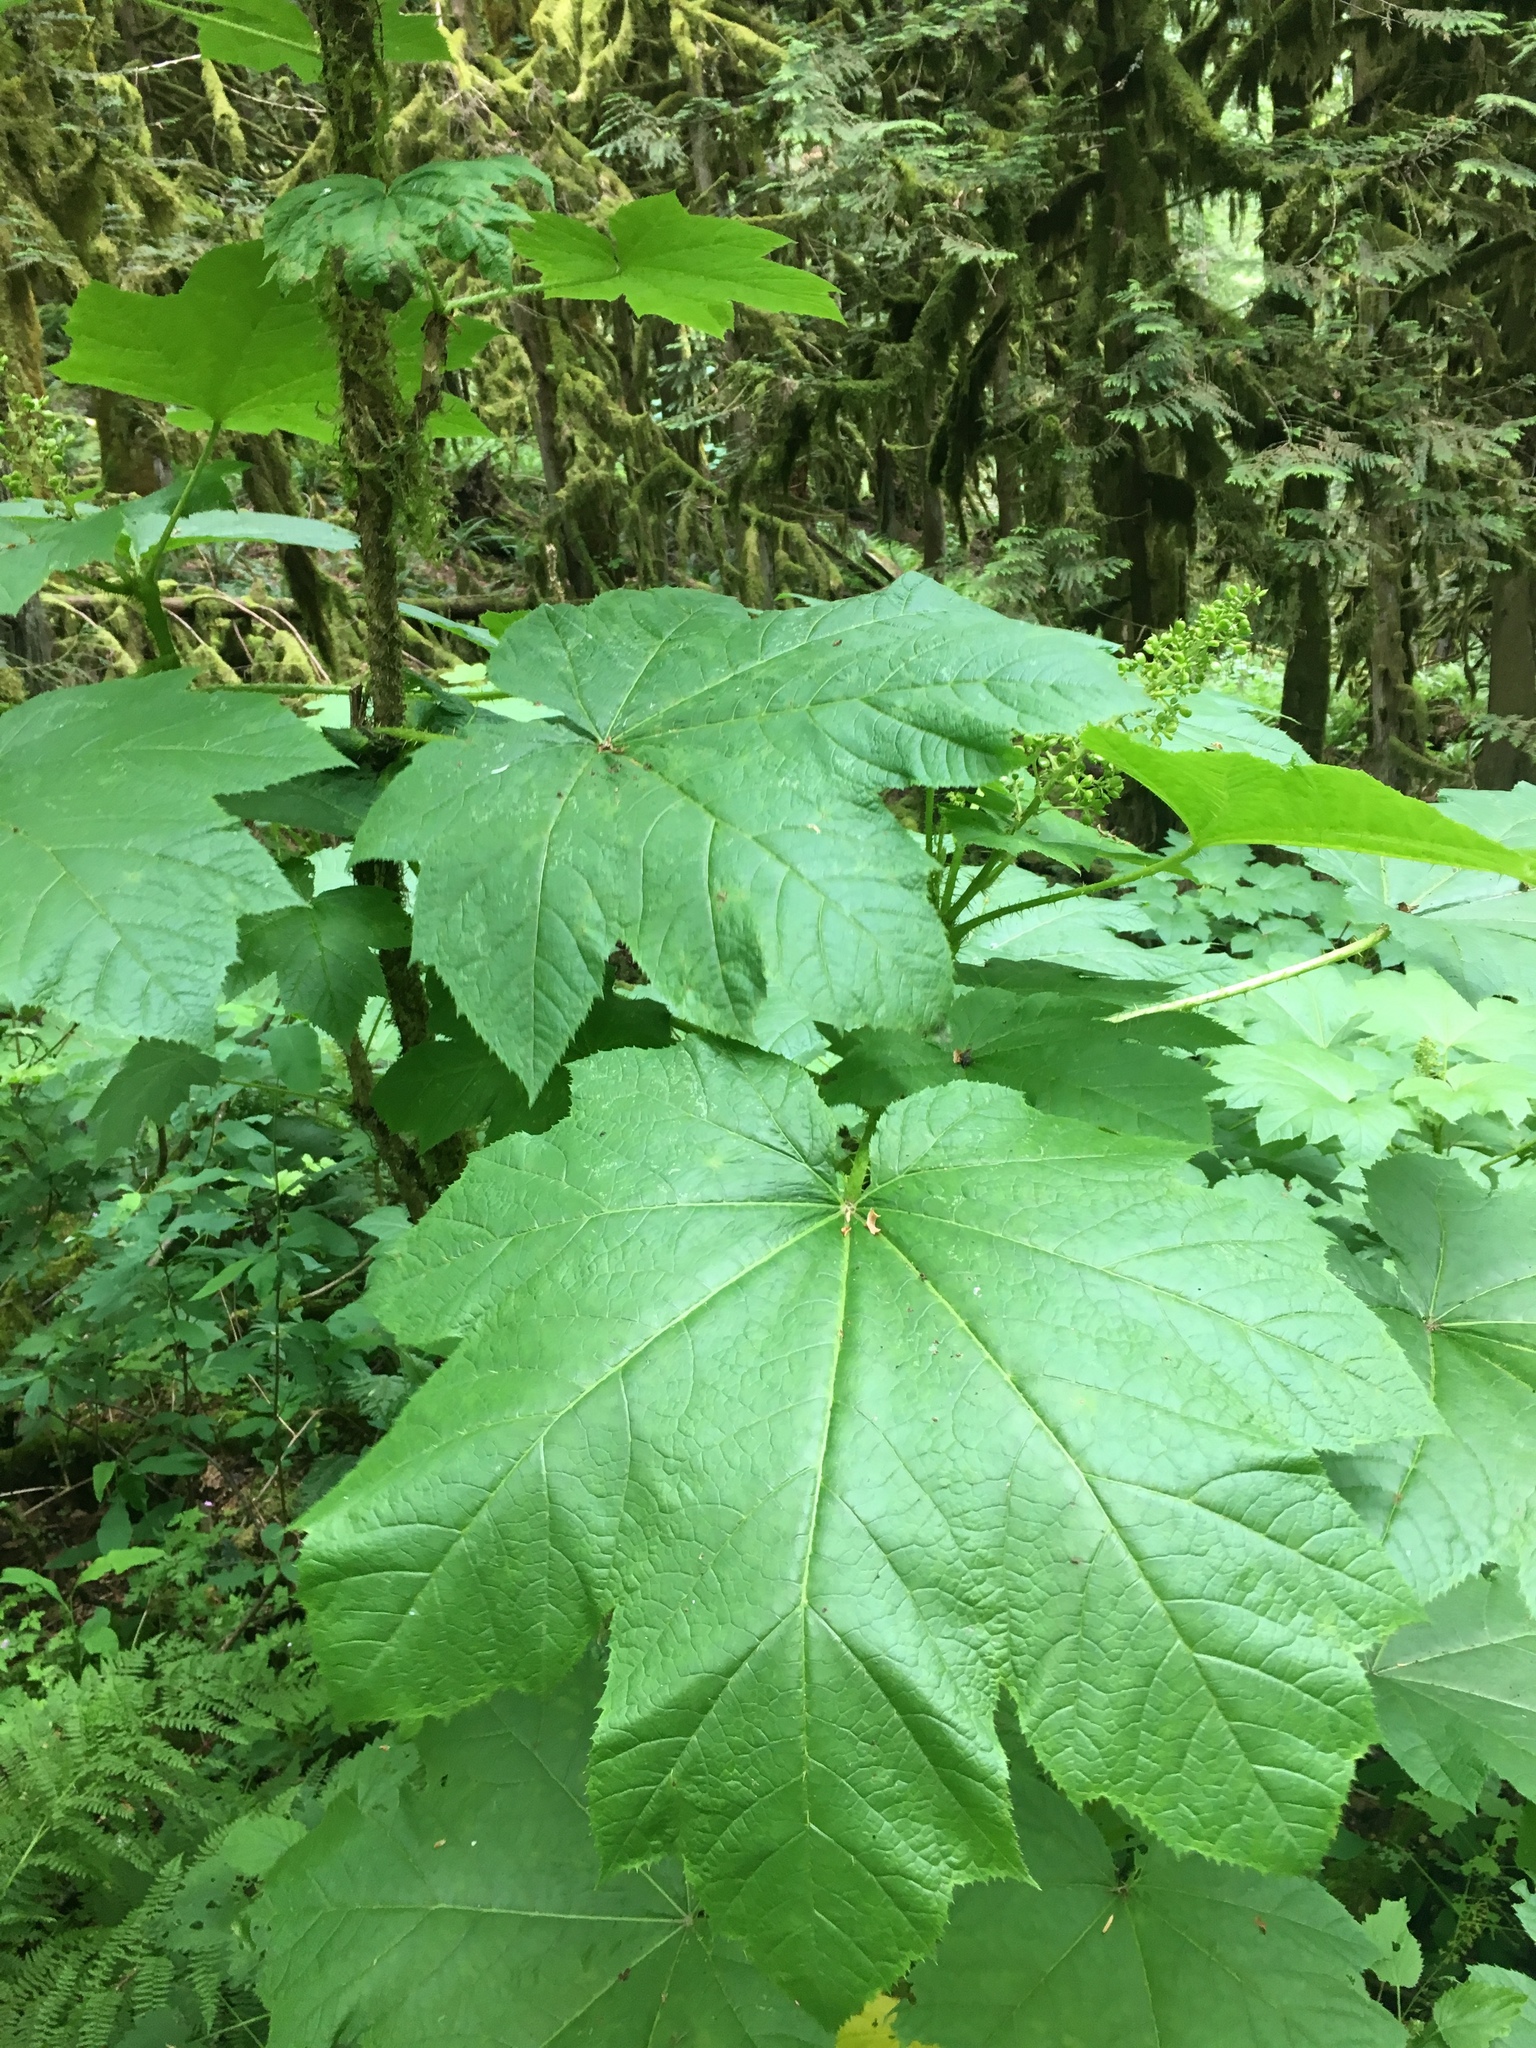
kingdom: Plantae
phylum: Tracheophyta
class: Magnoliopsida
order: Apiales
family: Araliaceae
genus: Oplopanax
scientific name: Oplopanax horridus
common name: Devil's walking-stick
